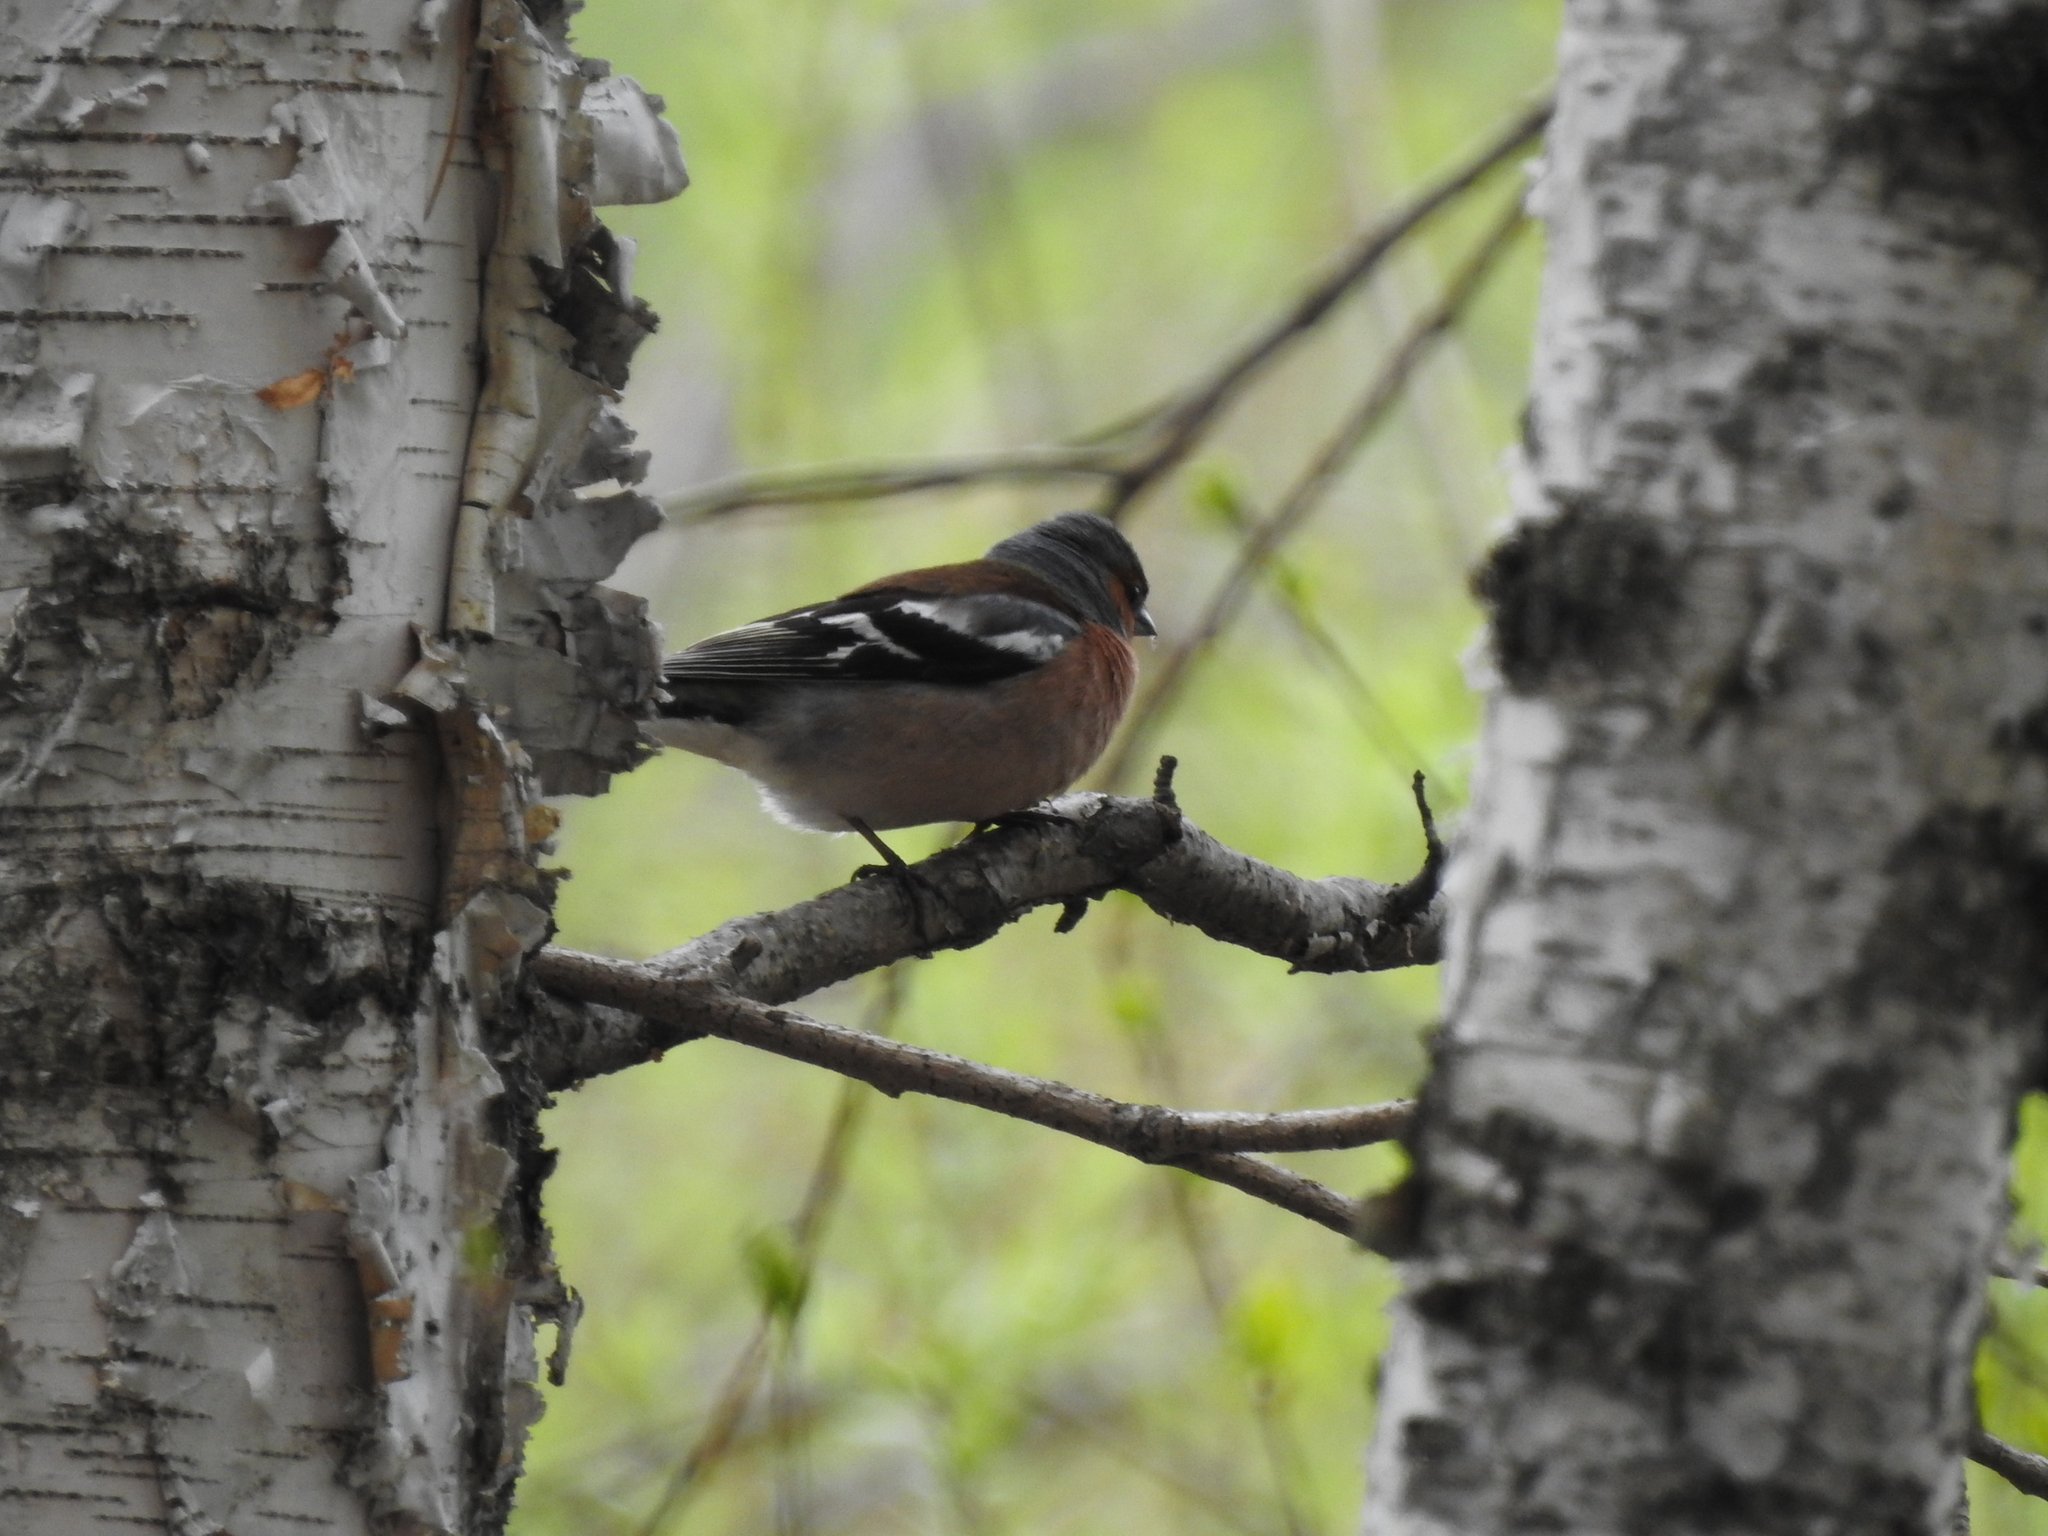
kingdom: Animalia
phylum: Chordata
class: Aves
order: Passeriformes
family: Fringillidae
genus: Fringilla
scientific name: Fringilla coelebs
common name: Common chaffinch
